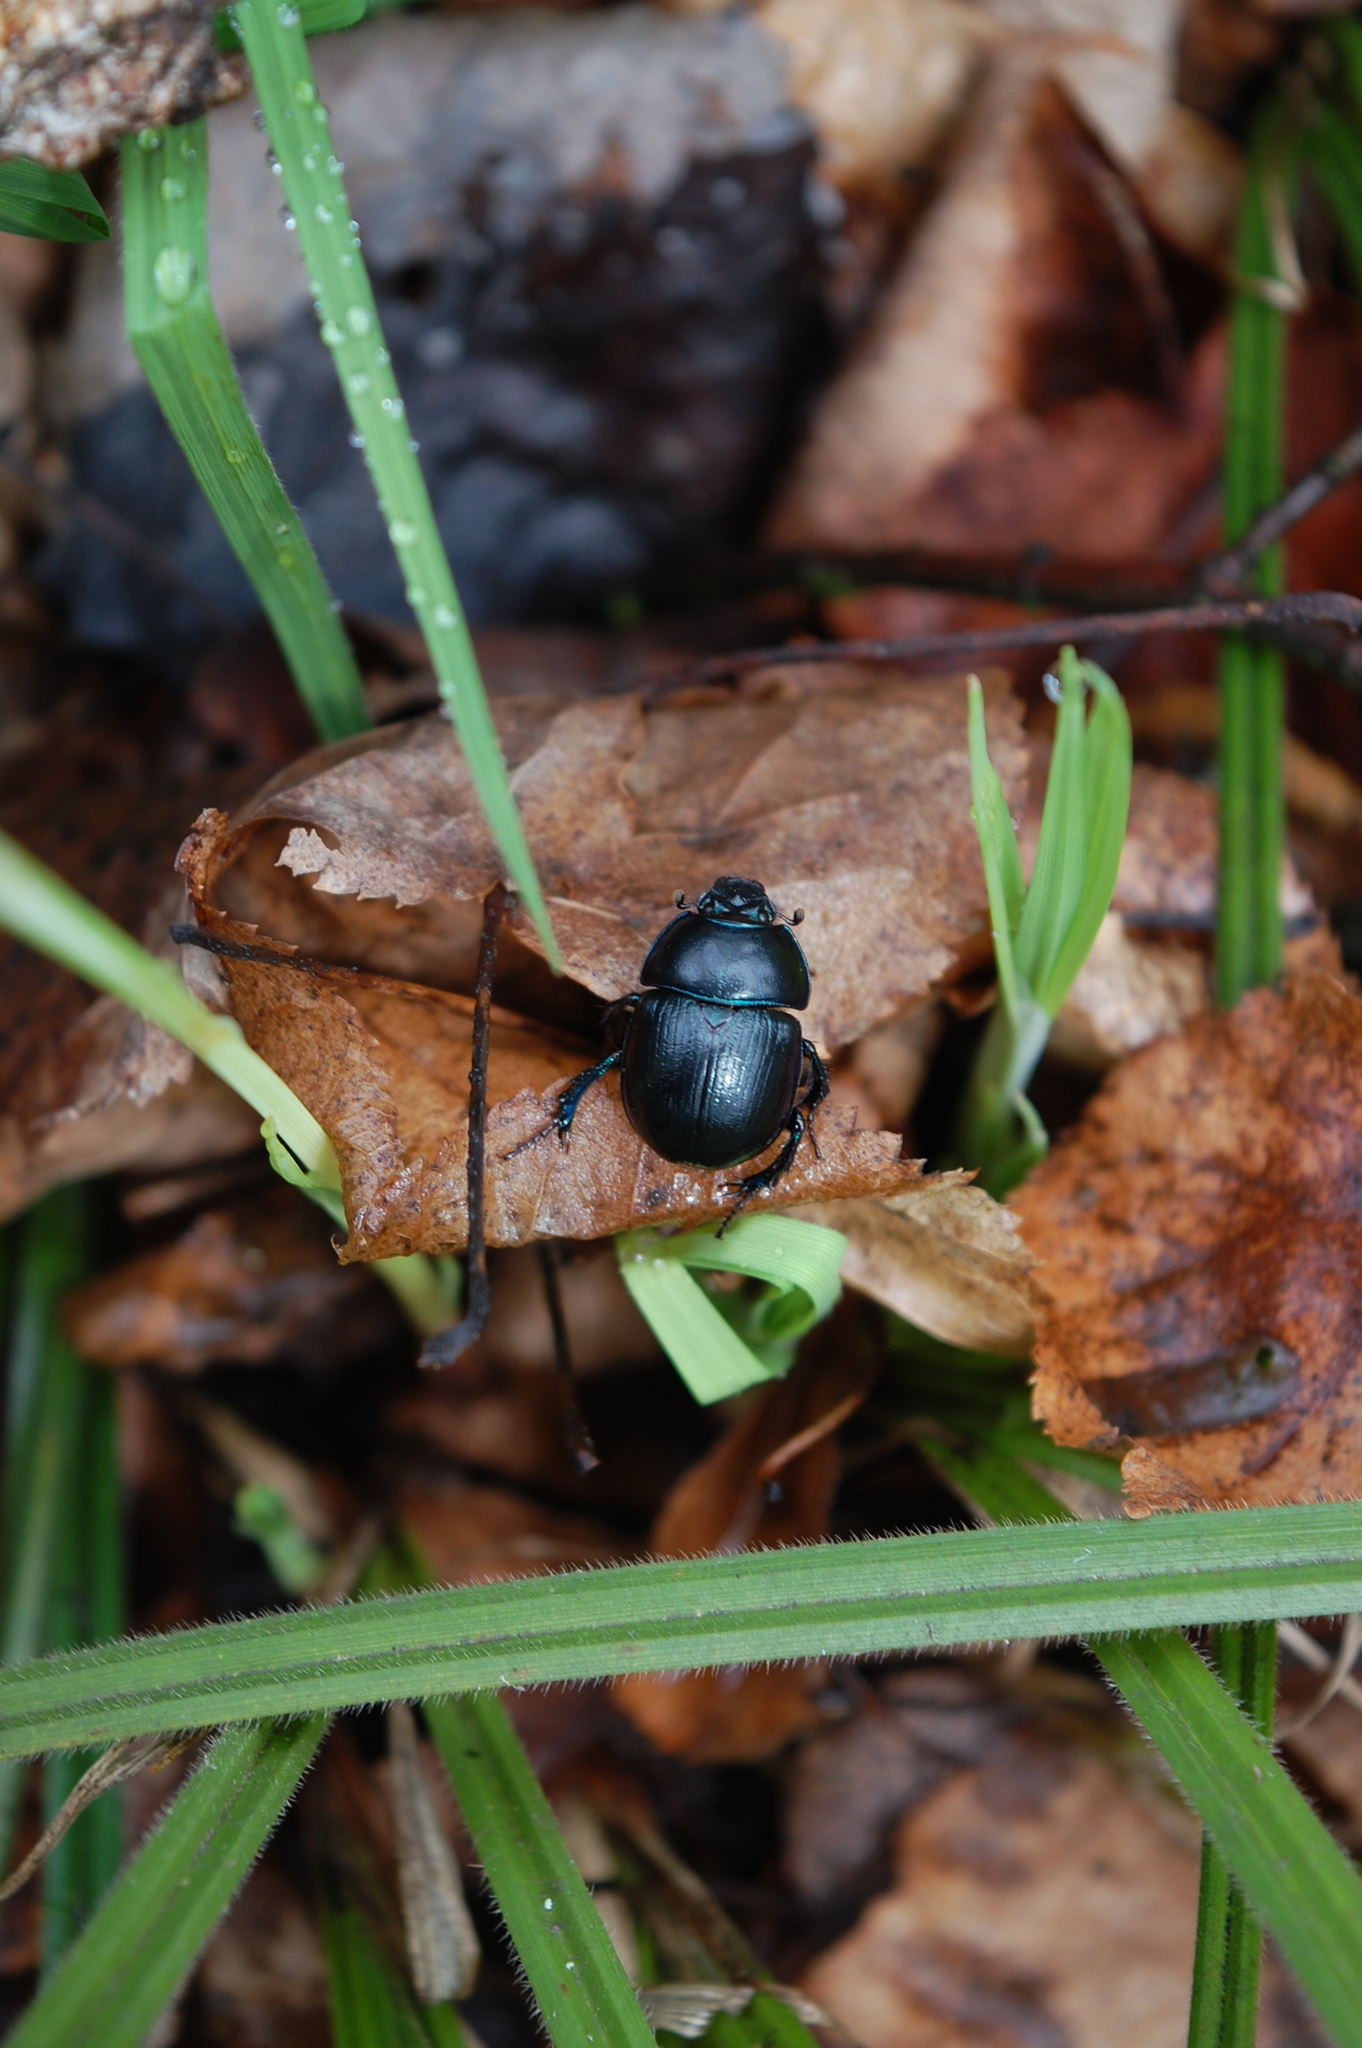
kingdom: Animalia
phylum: Arthropoda
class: Insecta
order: Coleoptera
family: Geotrupidae
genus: Anoplotrupes
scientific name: Anoplotrupes stercorosus
